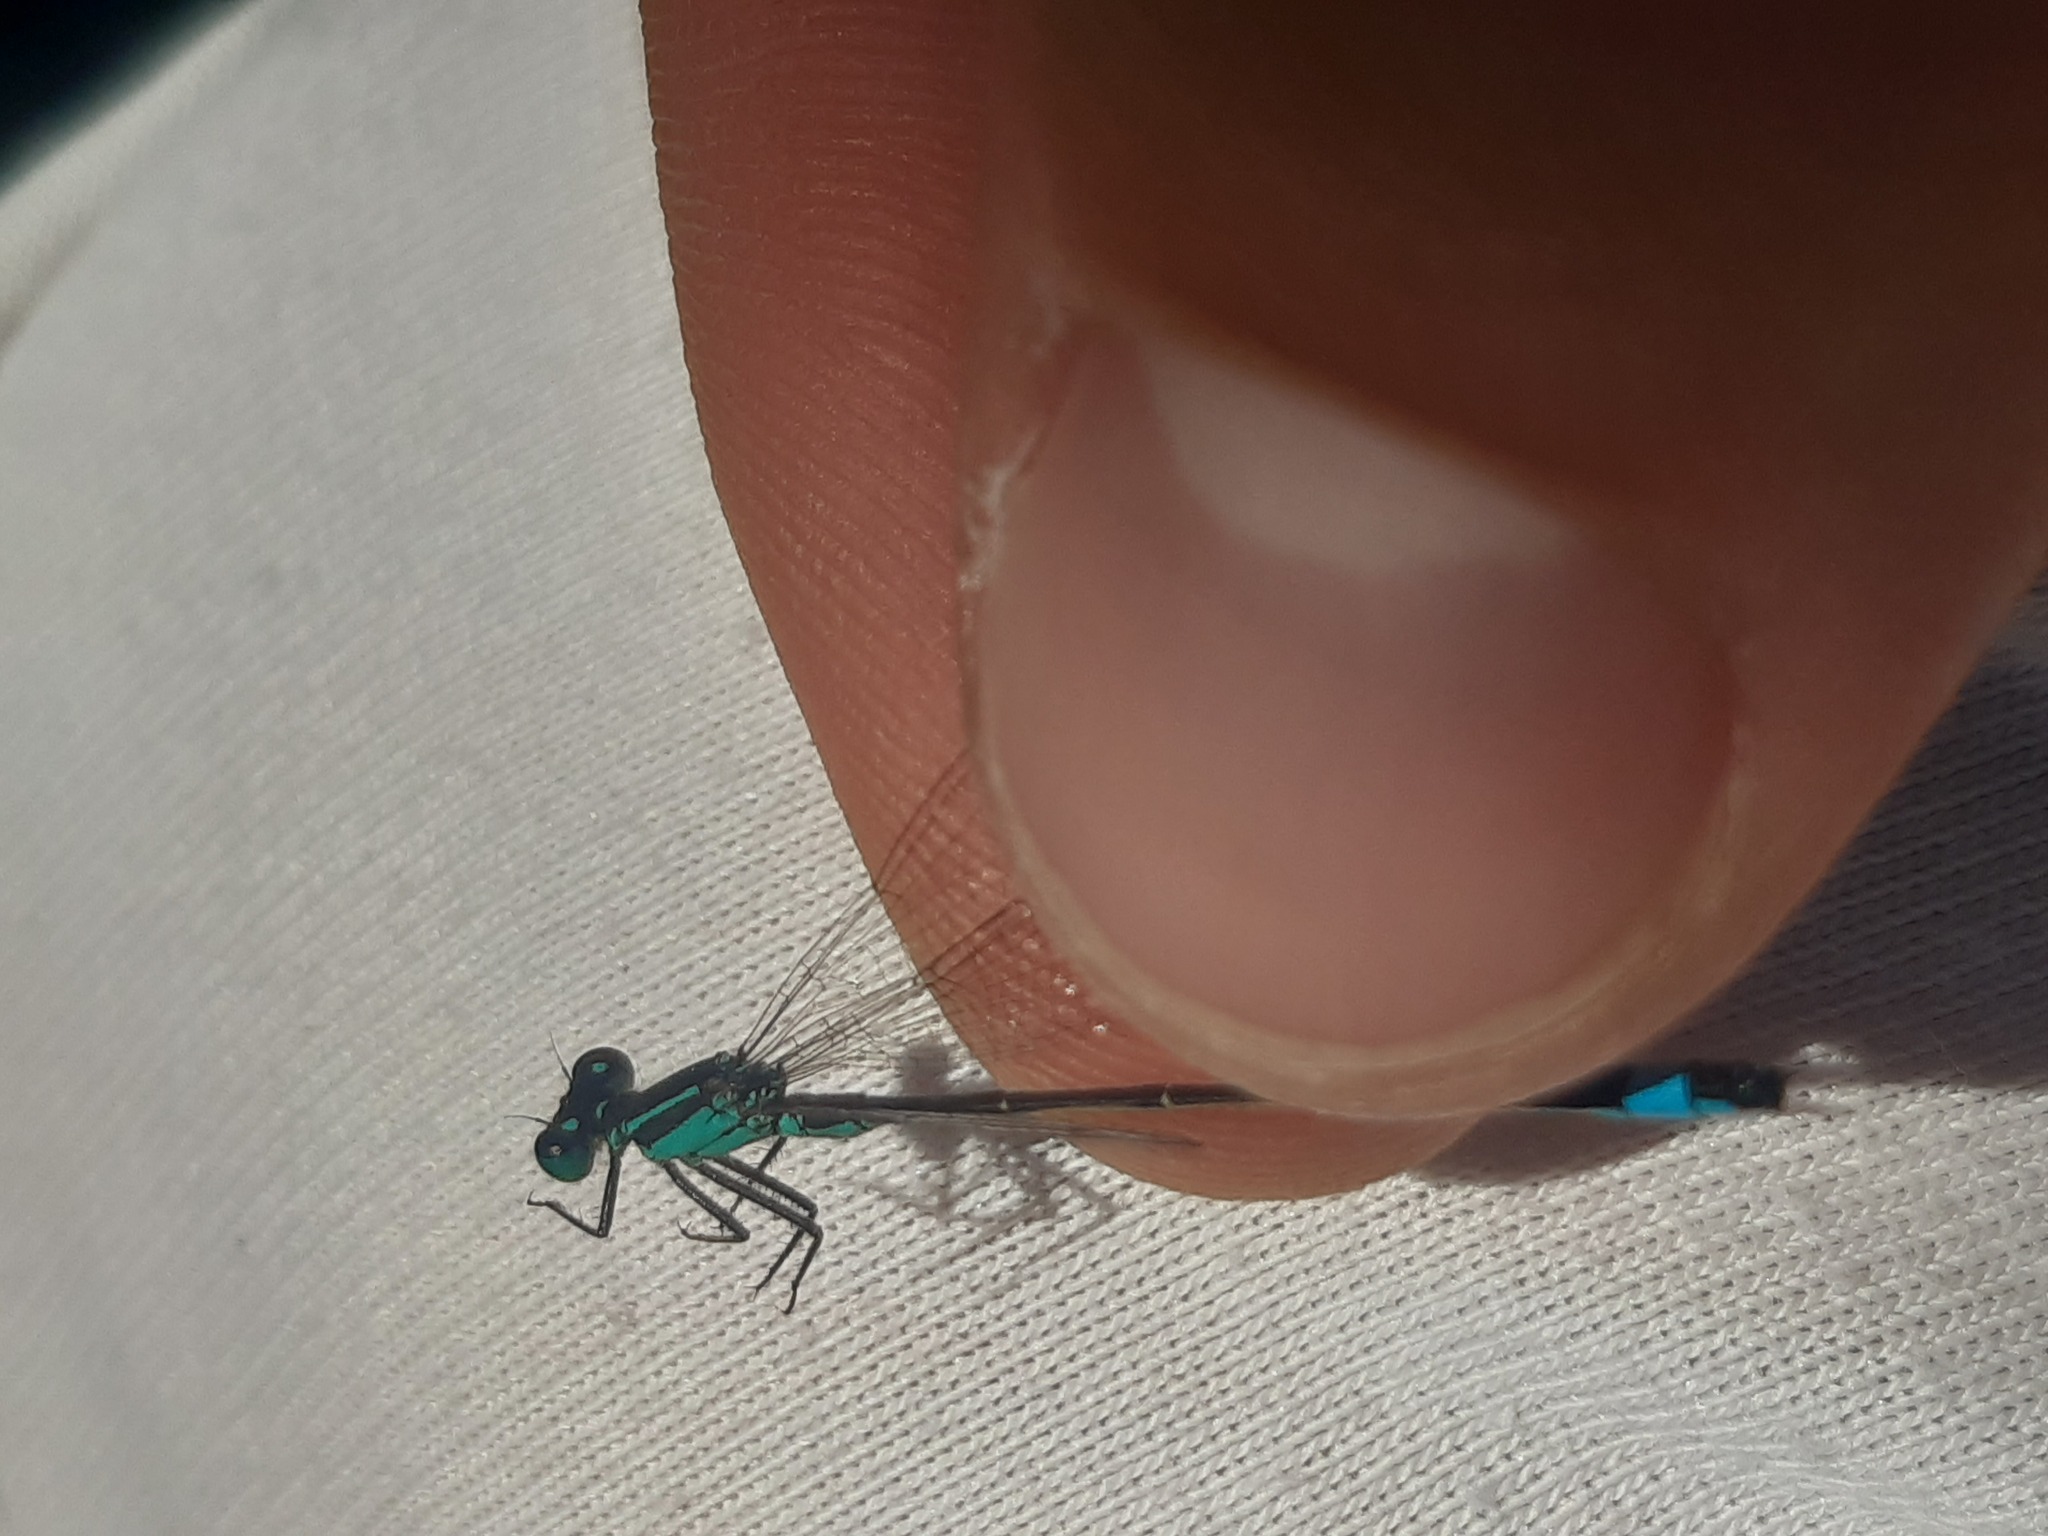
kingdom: Animalia
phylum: Arthropoda
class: Insecta
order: Odonata
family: Coenagrionidae
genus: Ischnura
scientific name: Ischnura elegans
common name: Blue-tailed damselfly
